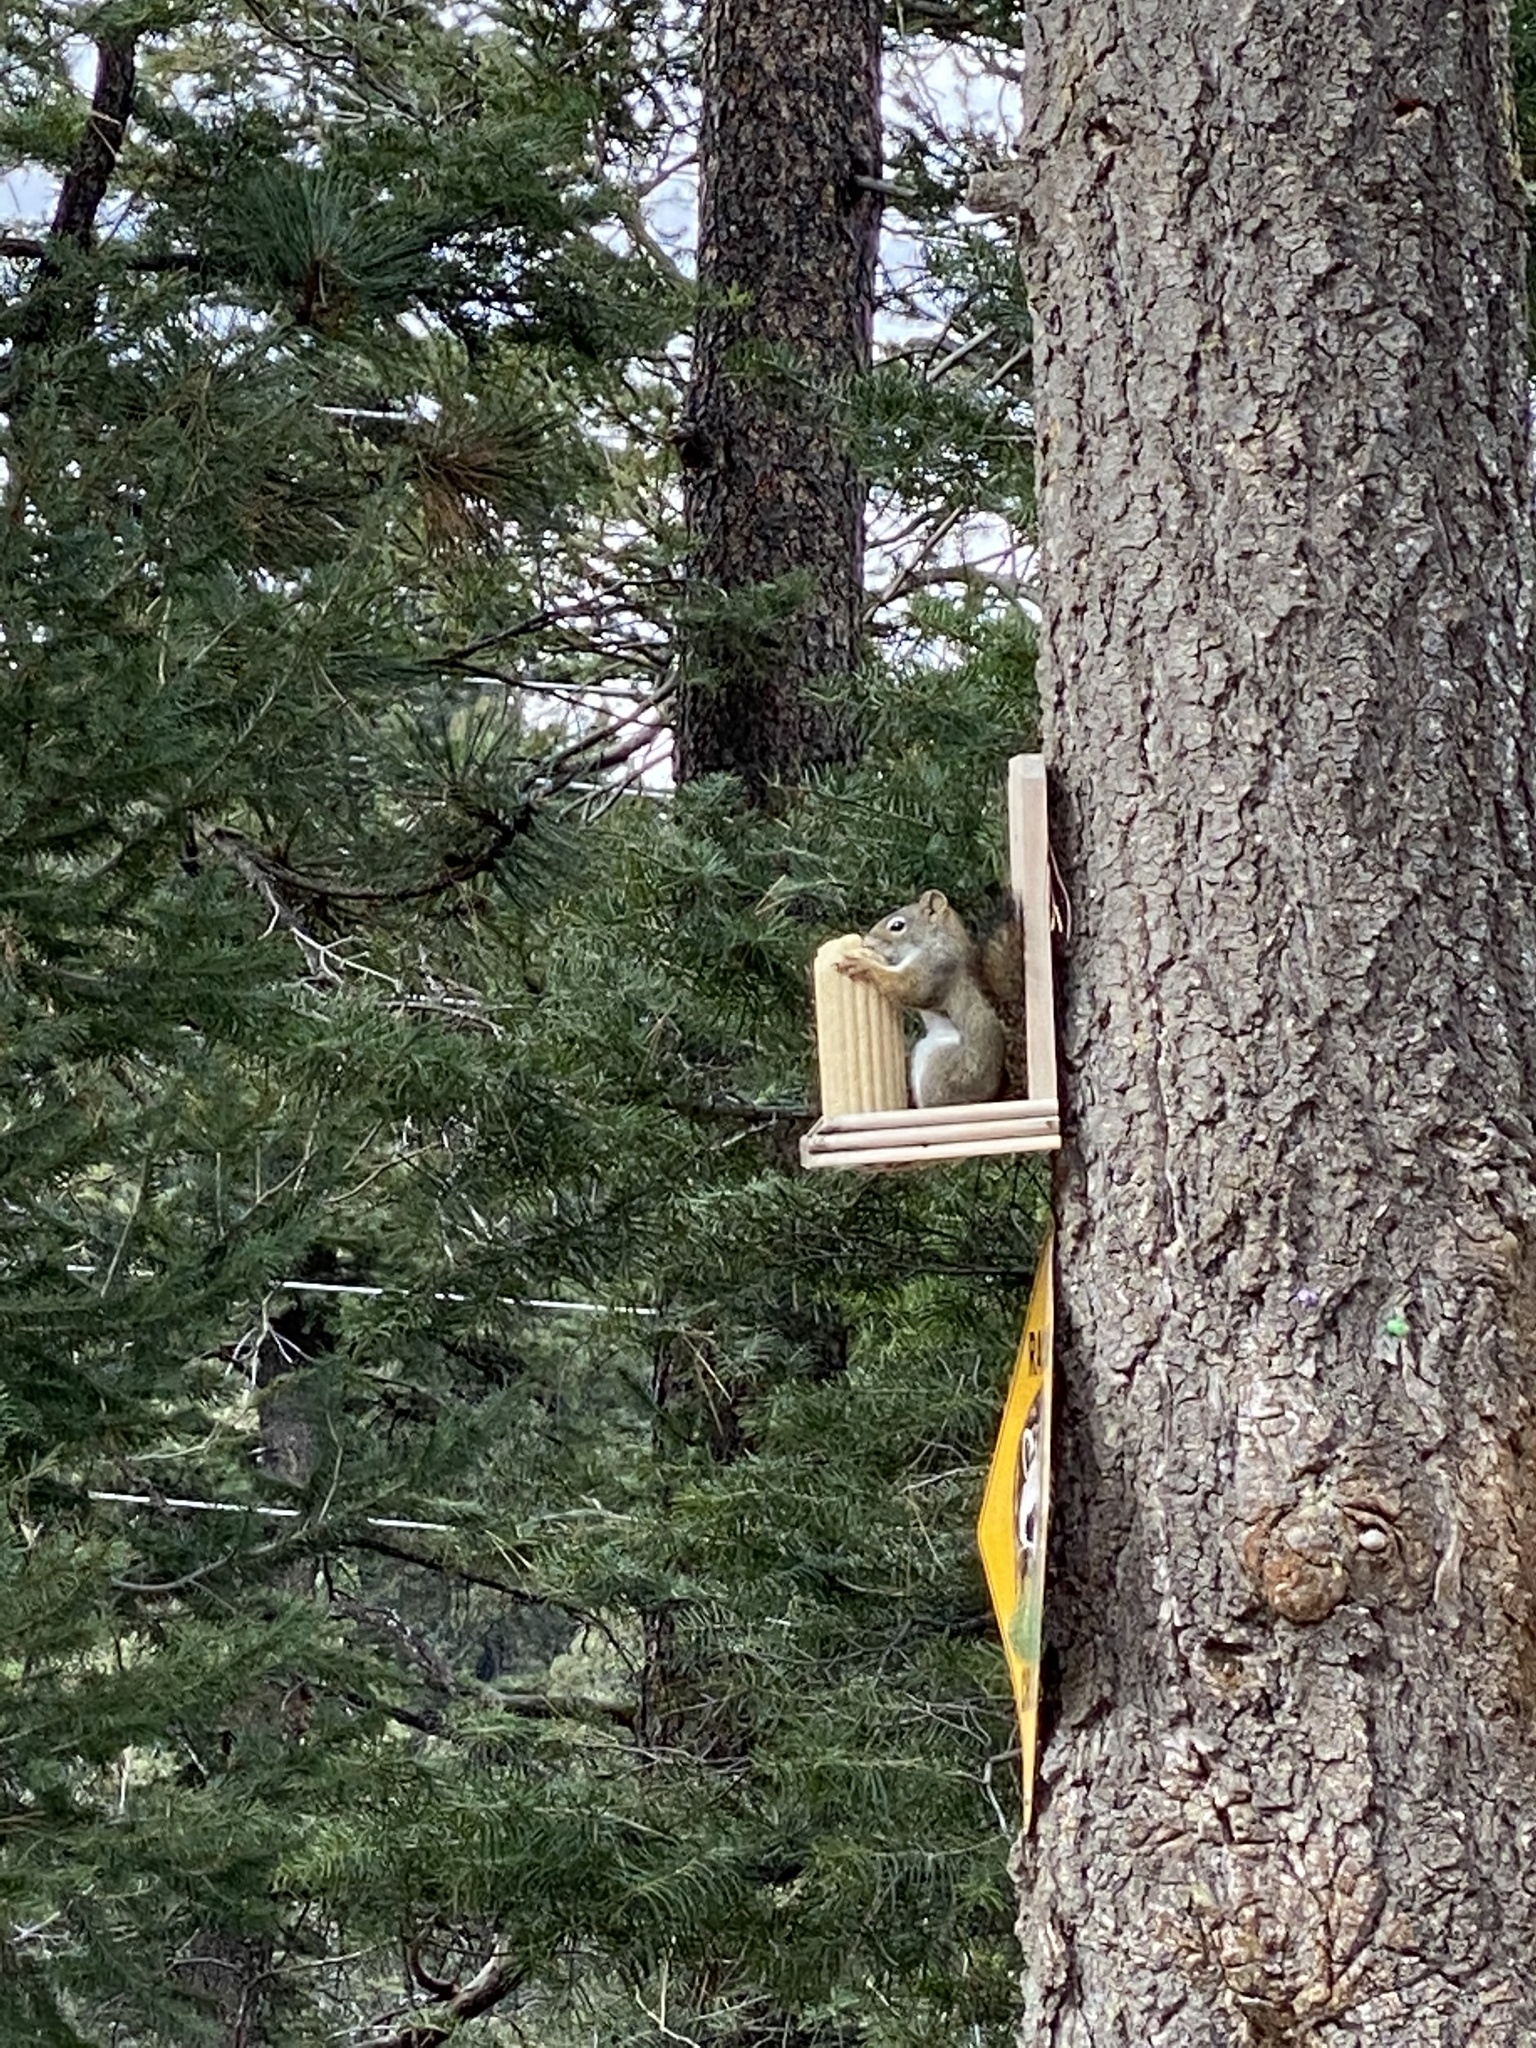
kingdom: Animalia
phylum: Chordata
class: Mammalia
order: Rodentia
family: Sciuridae
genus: Tamiasciurus
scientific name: Tamiasciurus hudsonicus
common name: Red squirrel
